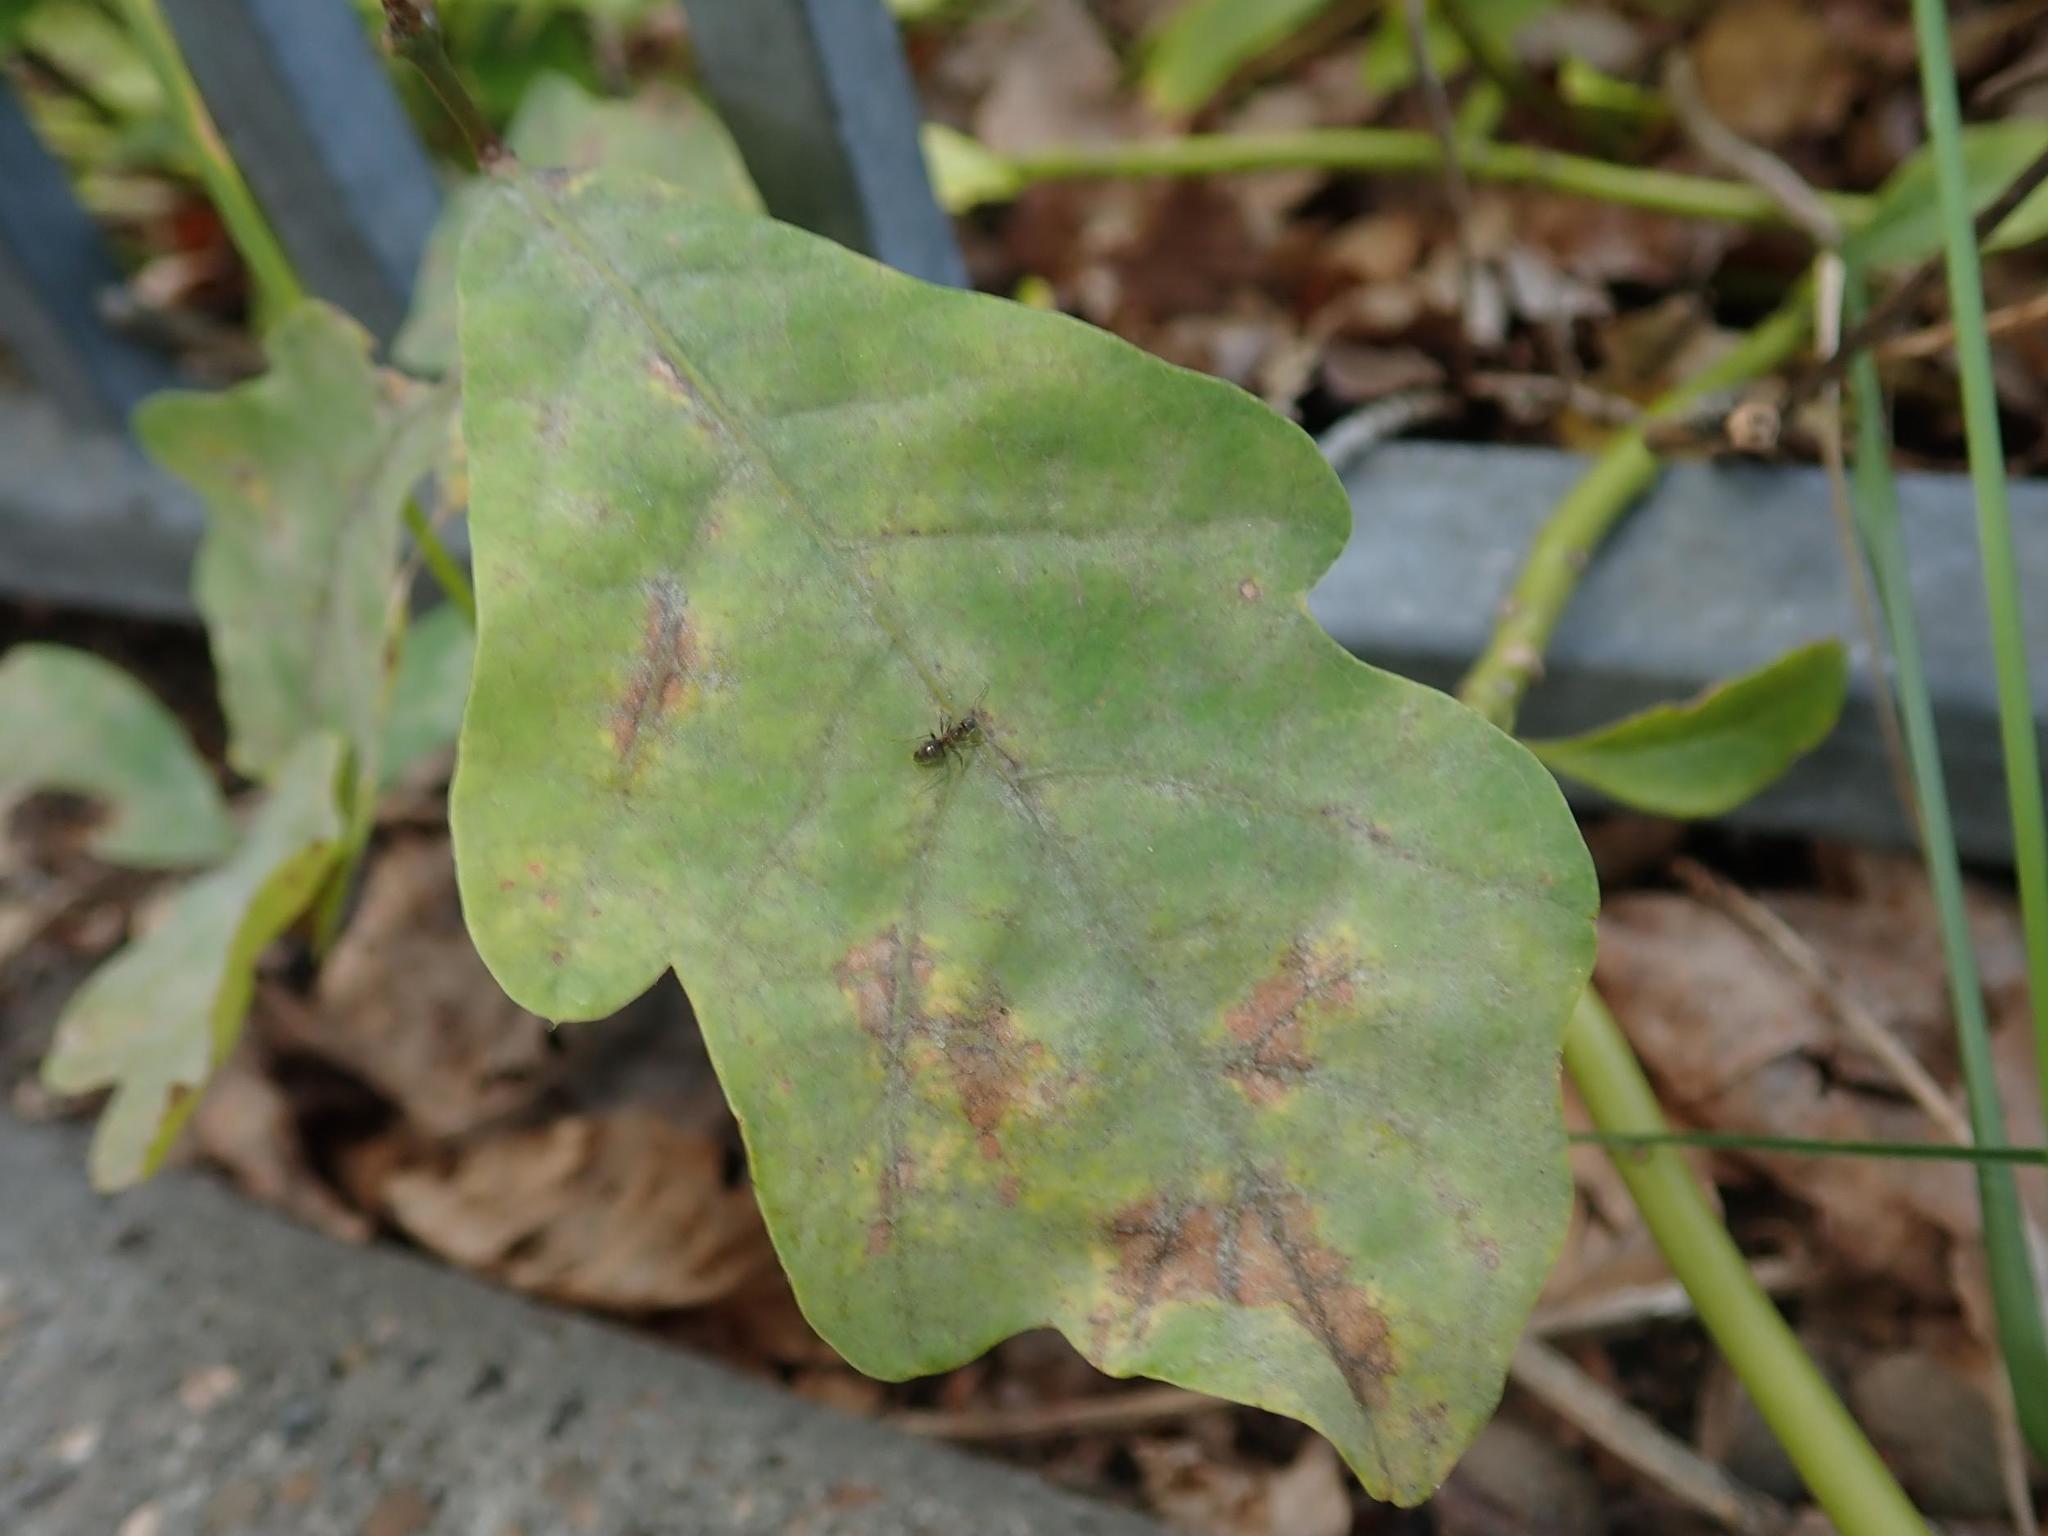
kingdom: Fungi
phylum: Ascomycota
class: Leotiomycetes
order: Helotiales
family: Erysiphaceae
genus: Erysiphe
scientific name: Erysiphe
